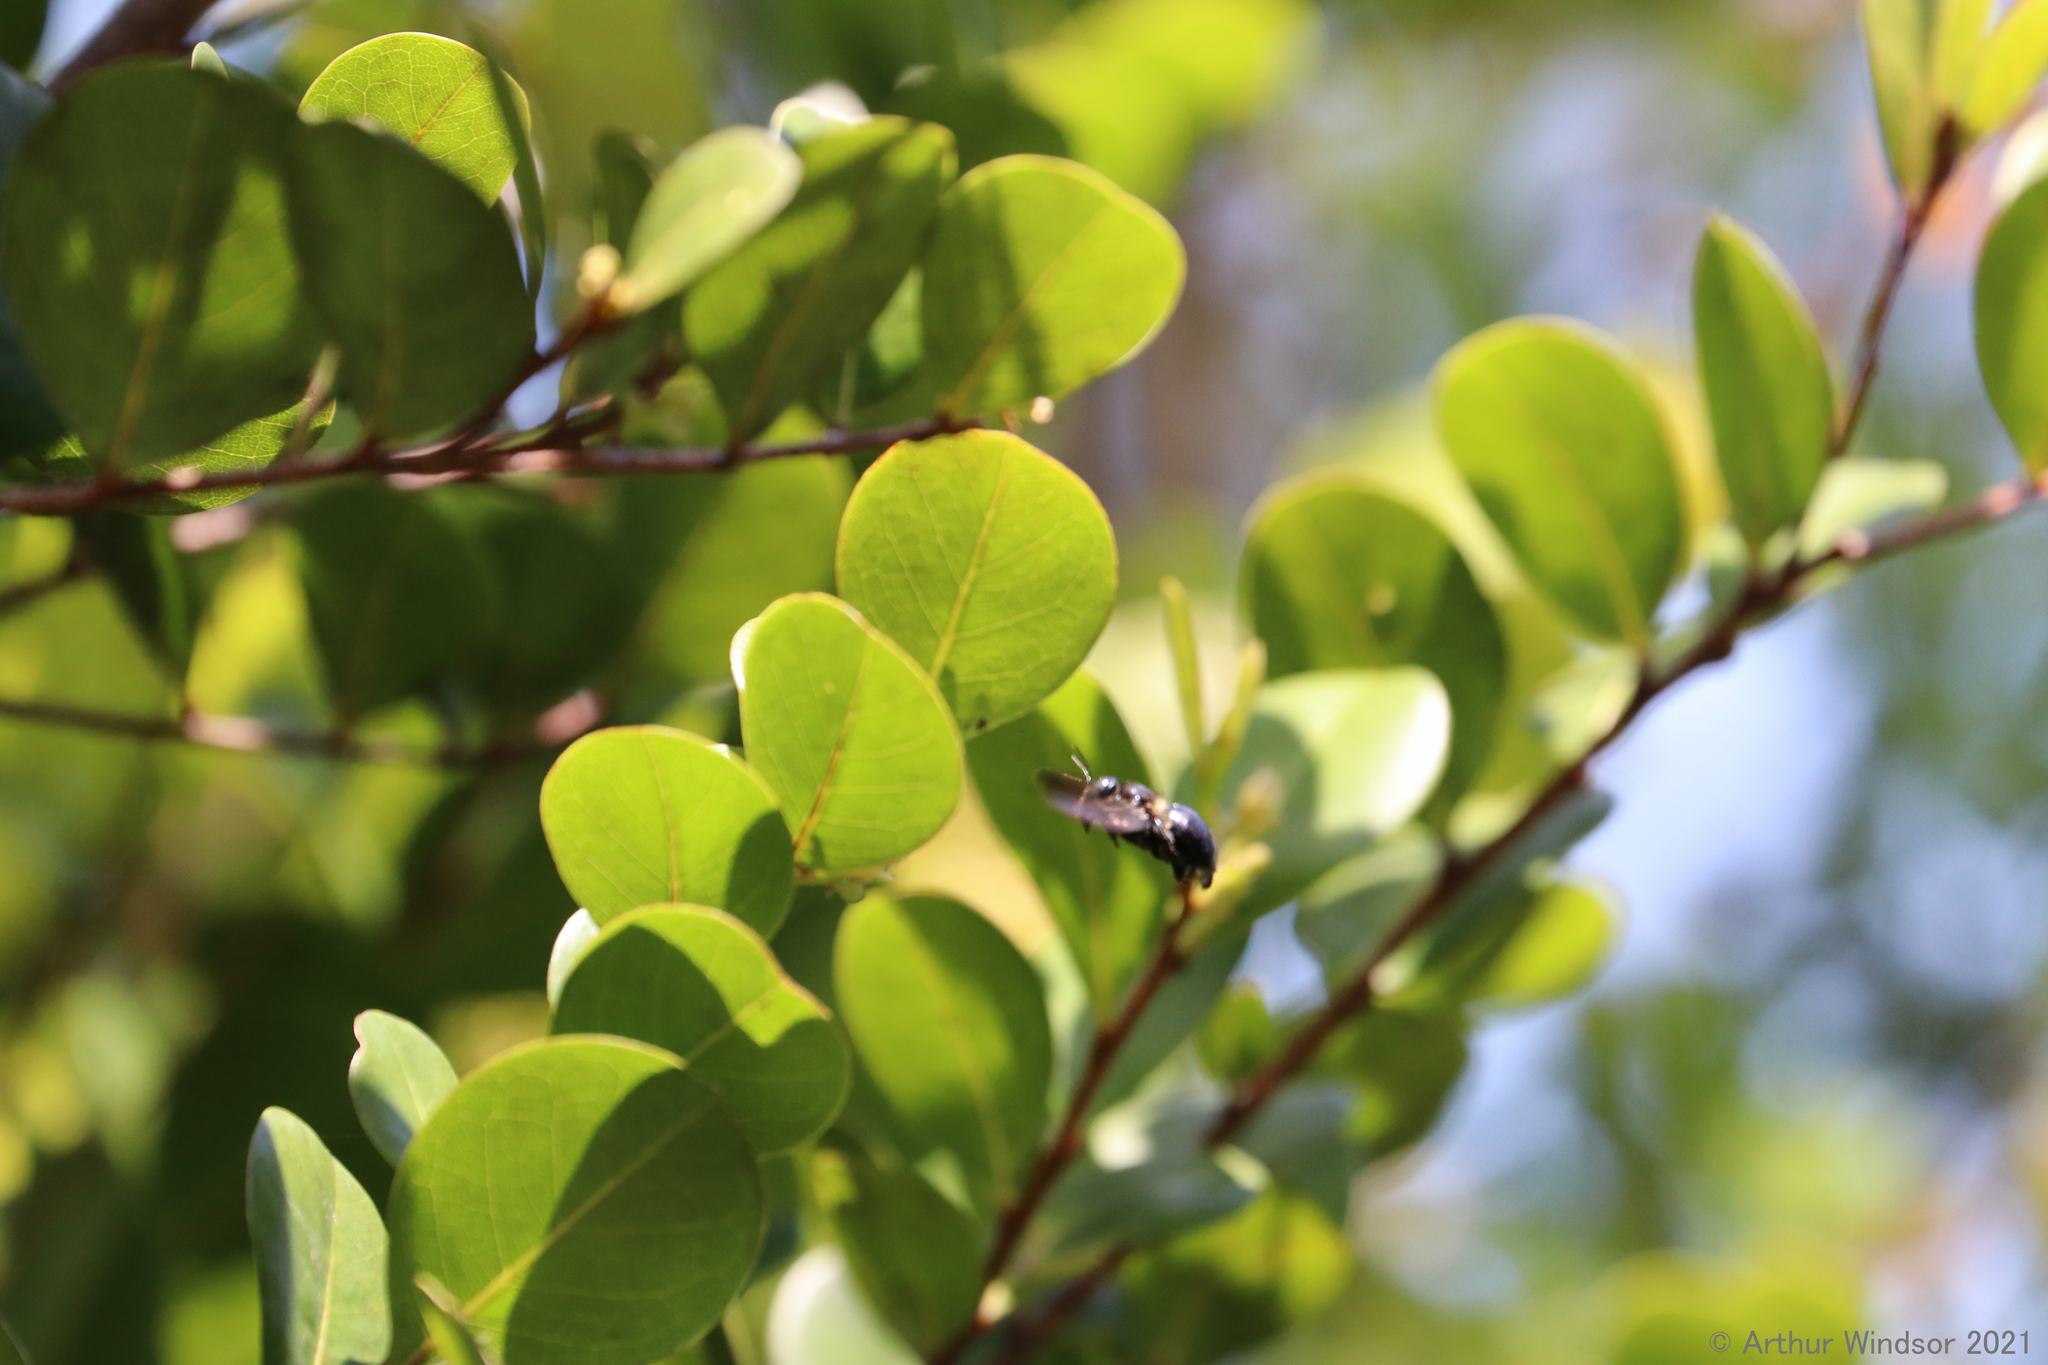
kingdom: Animalia
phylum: Arthropoda
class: Insecta
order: Hymenoptera
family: Apidae
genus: Xylocopa
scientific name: Xylocopa micans
